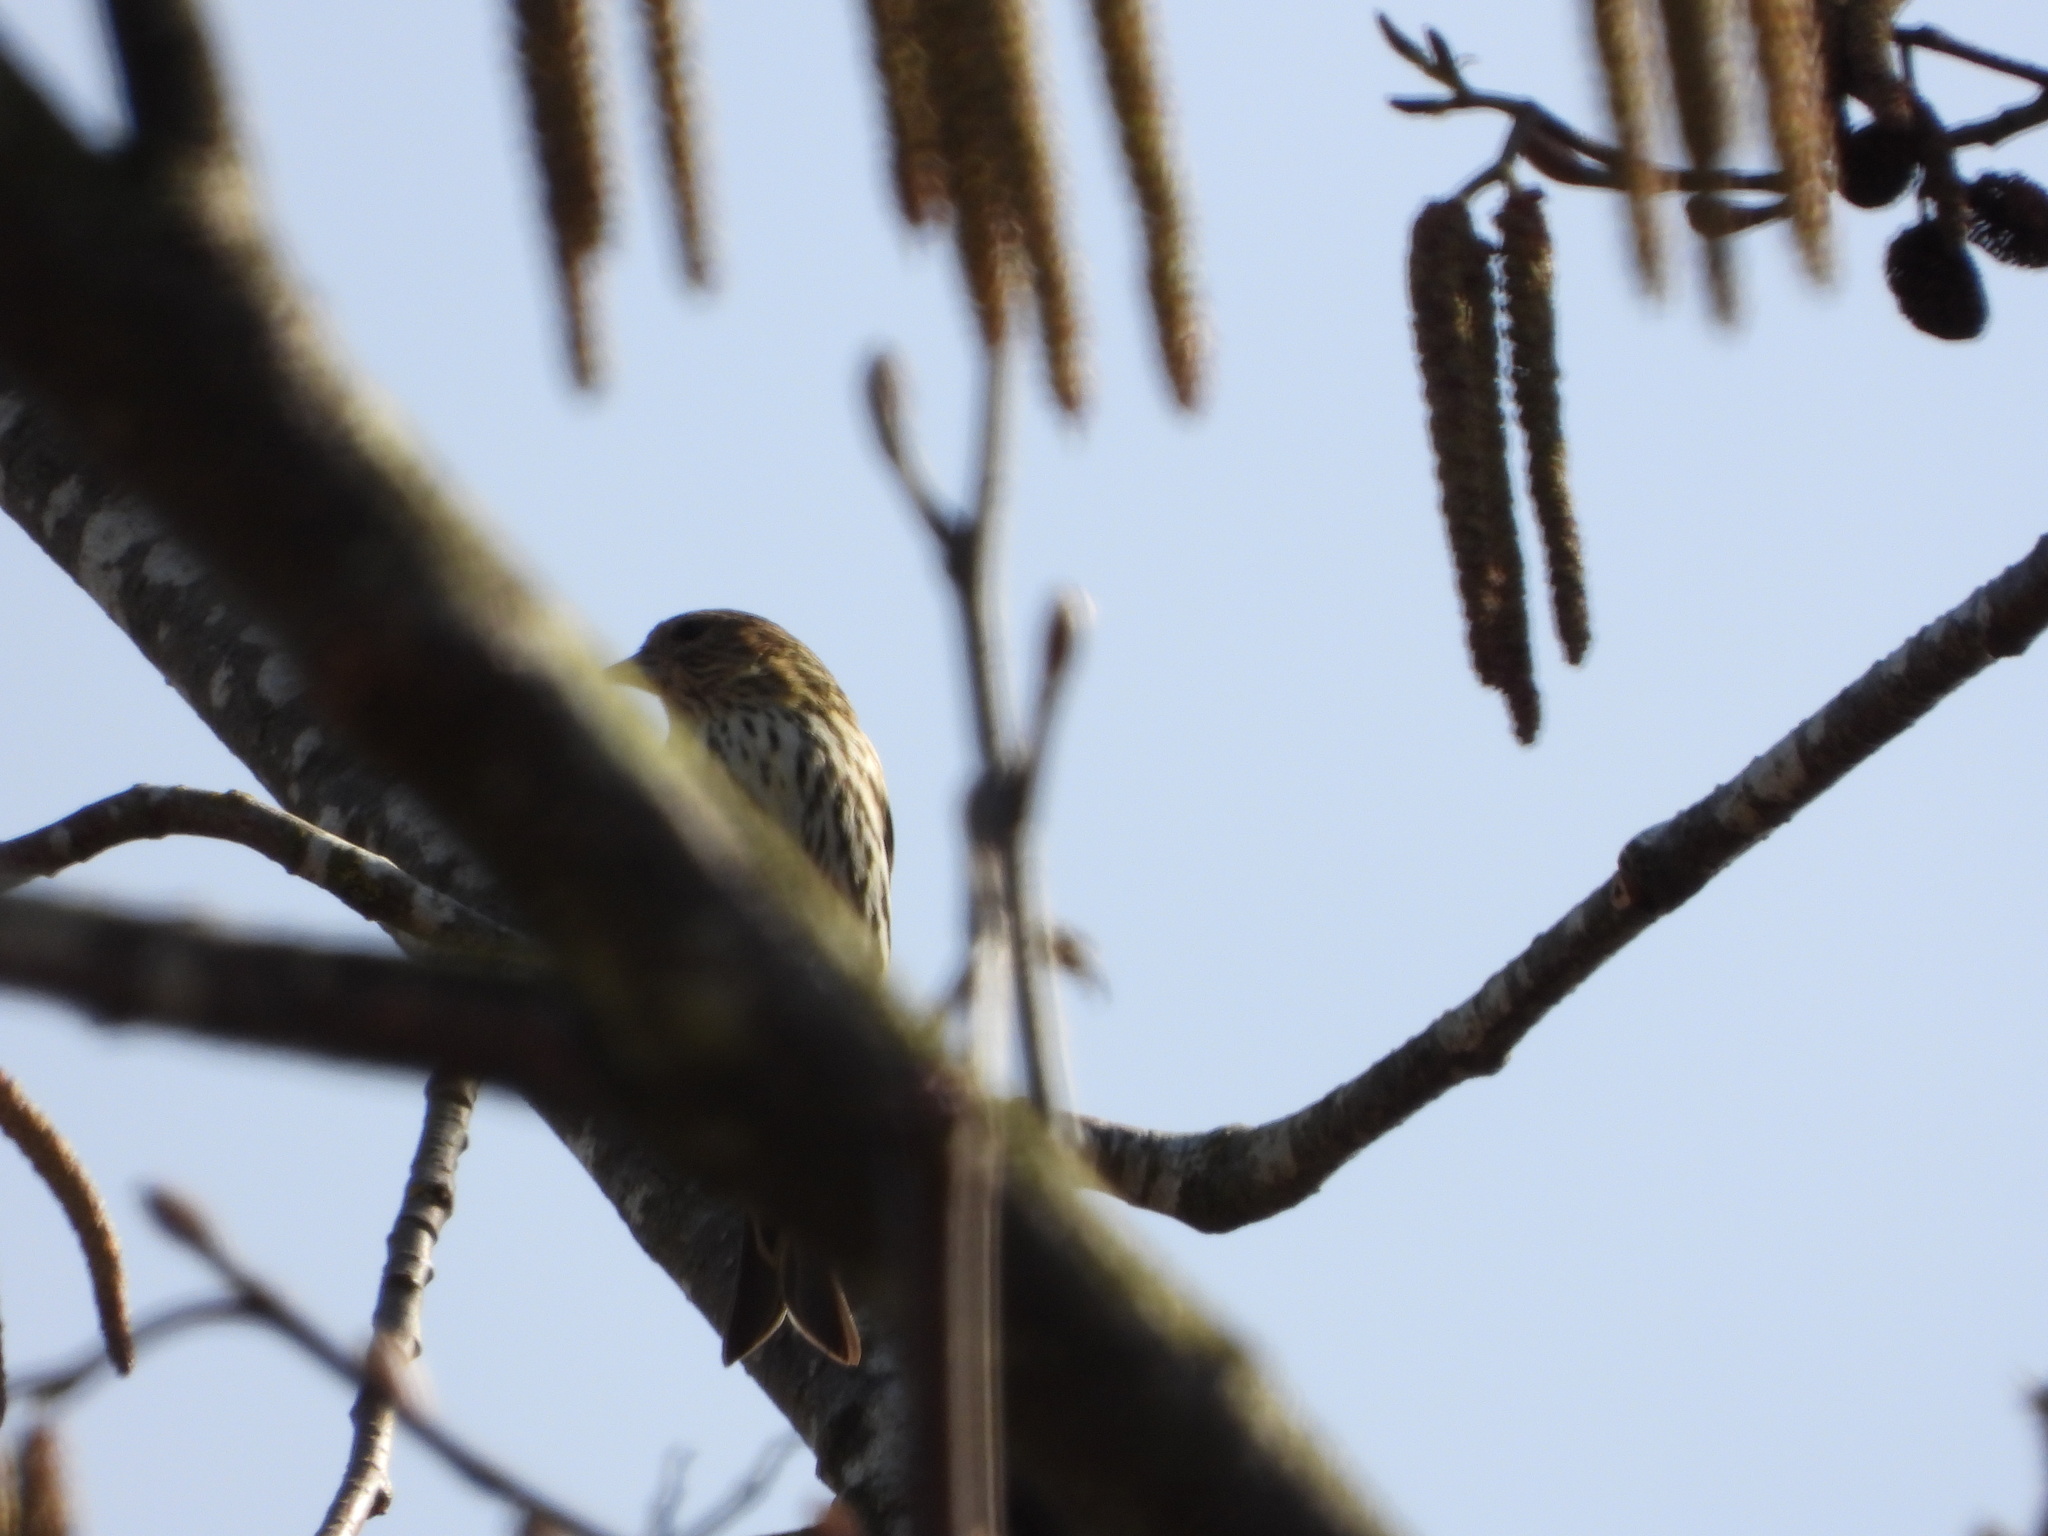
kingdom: Animalia
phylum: Chordata
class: Aves
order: Passeriformes
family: Fringillidae
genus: Spinus
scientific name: Spinus pinus
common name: Pine siskin
